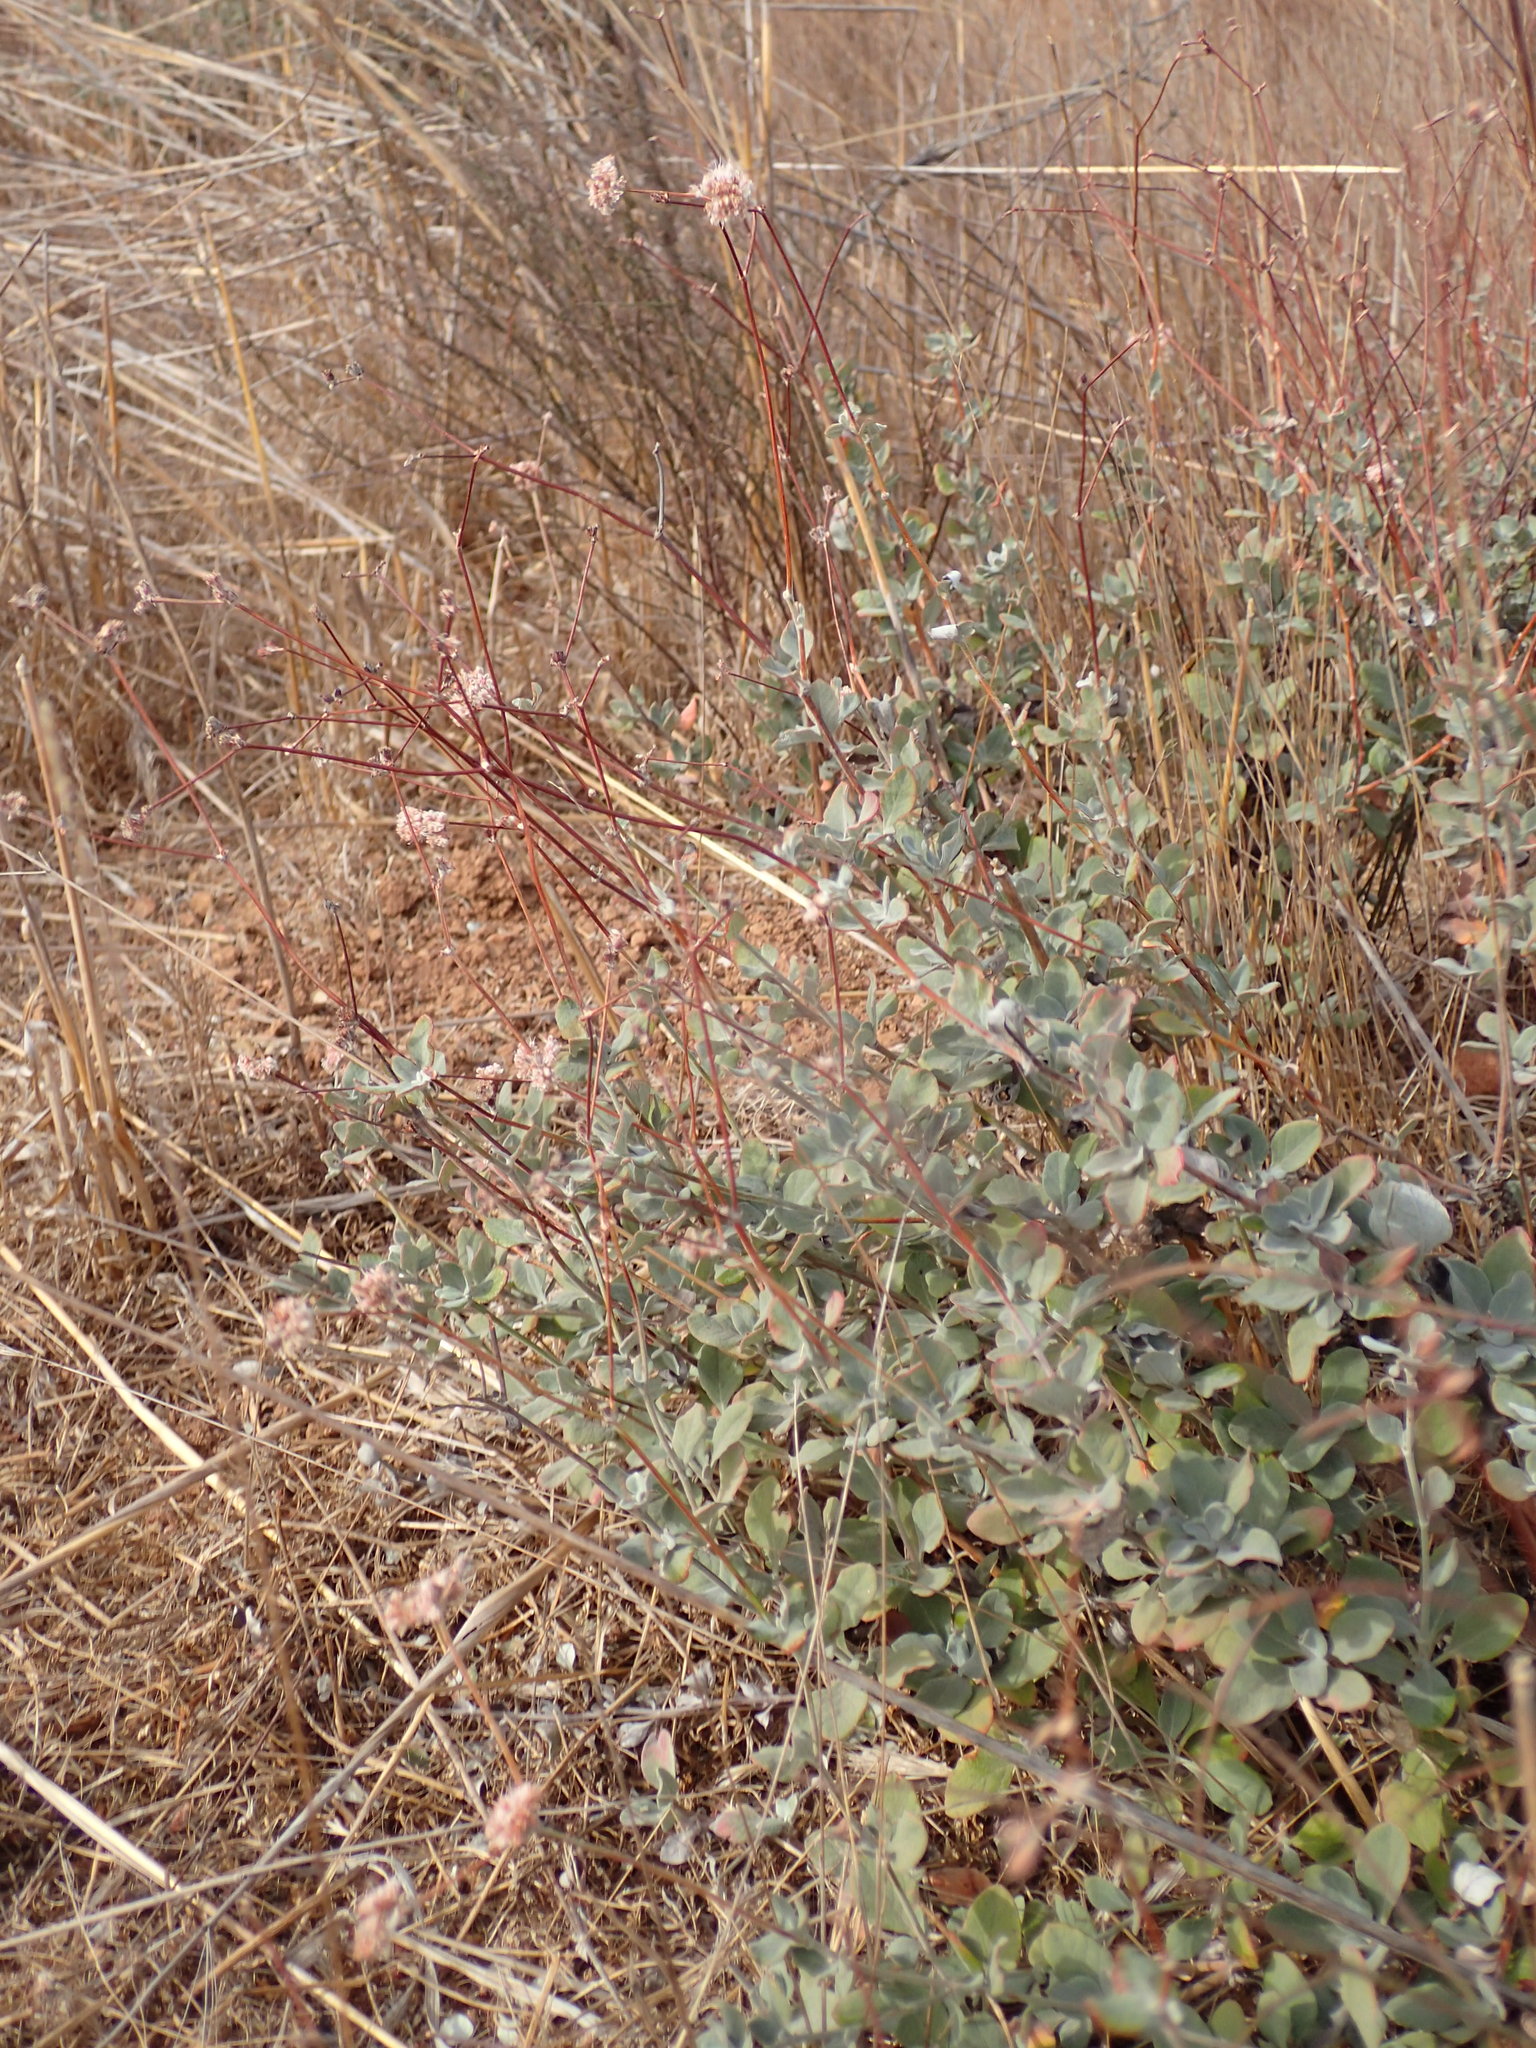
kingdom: Plantae
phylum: Tracheophyta
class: Magnoliopsida
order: Caryophyllales
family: Polygonaceae
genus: Eriogonum
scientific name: Eriogonum cinereum
